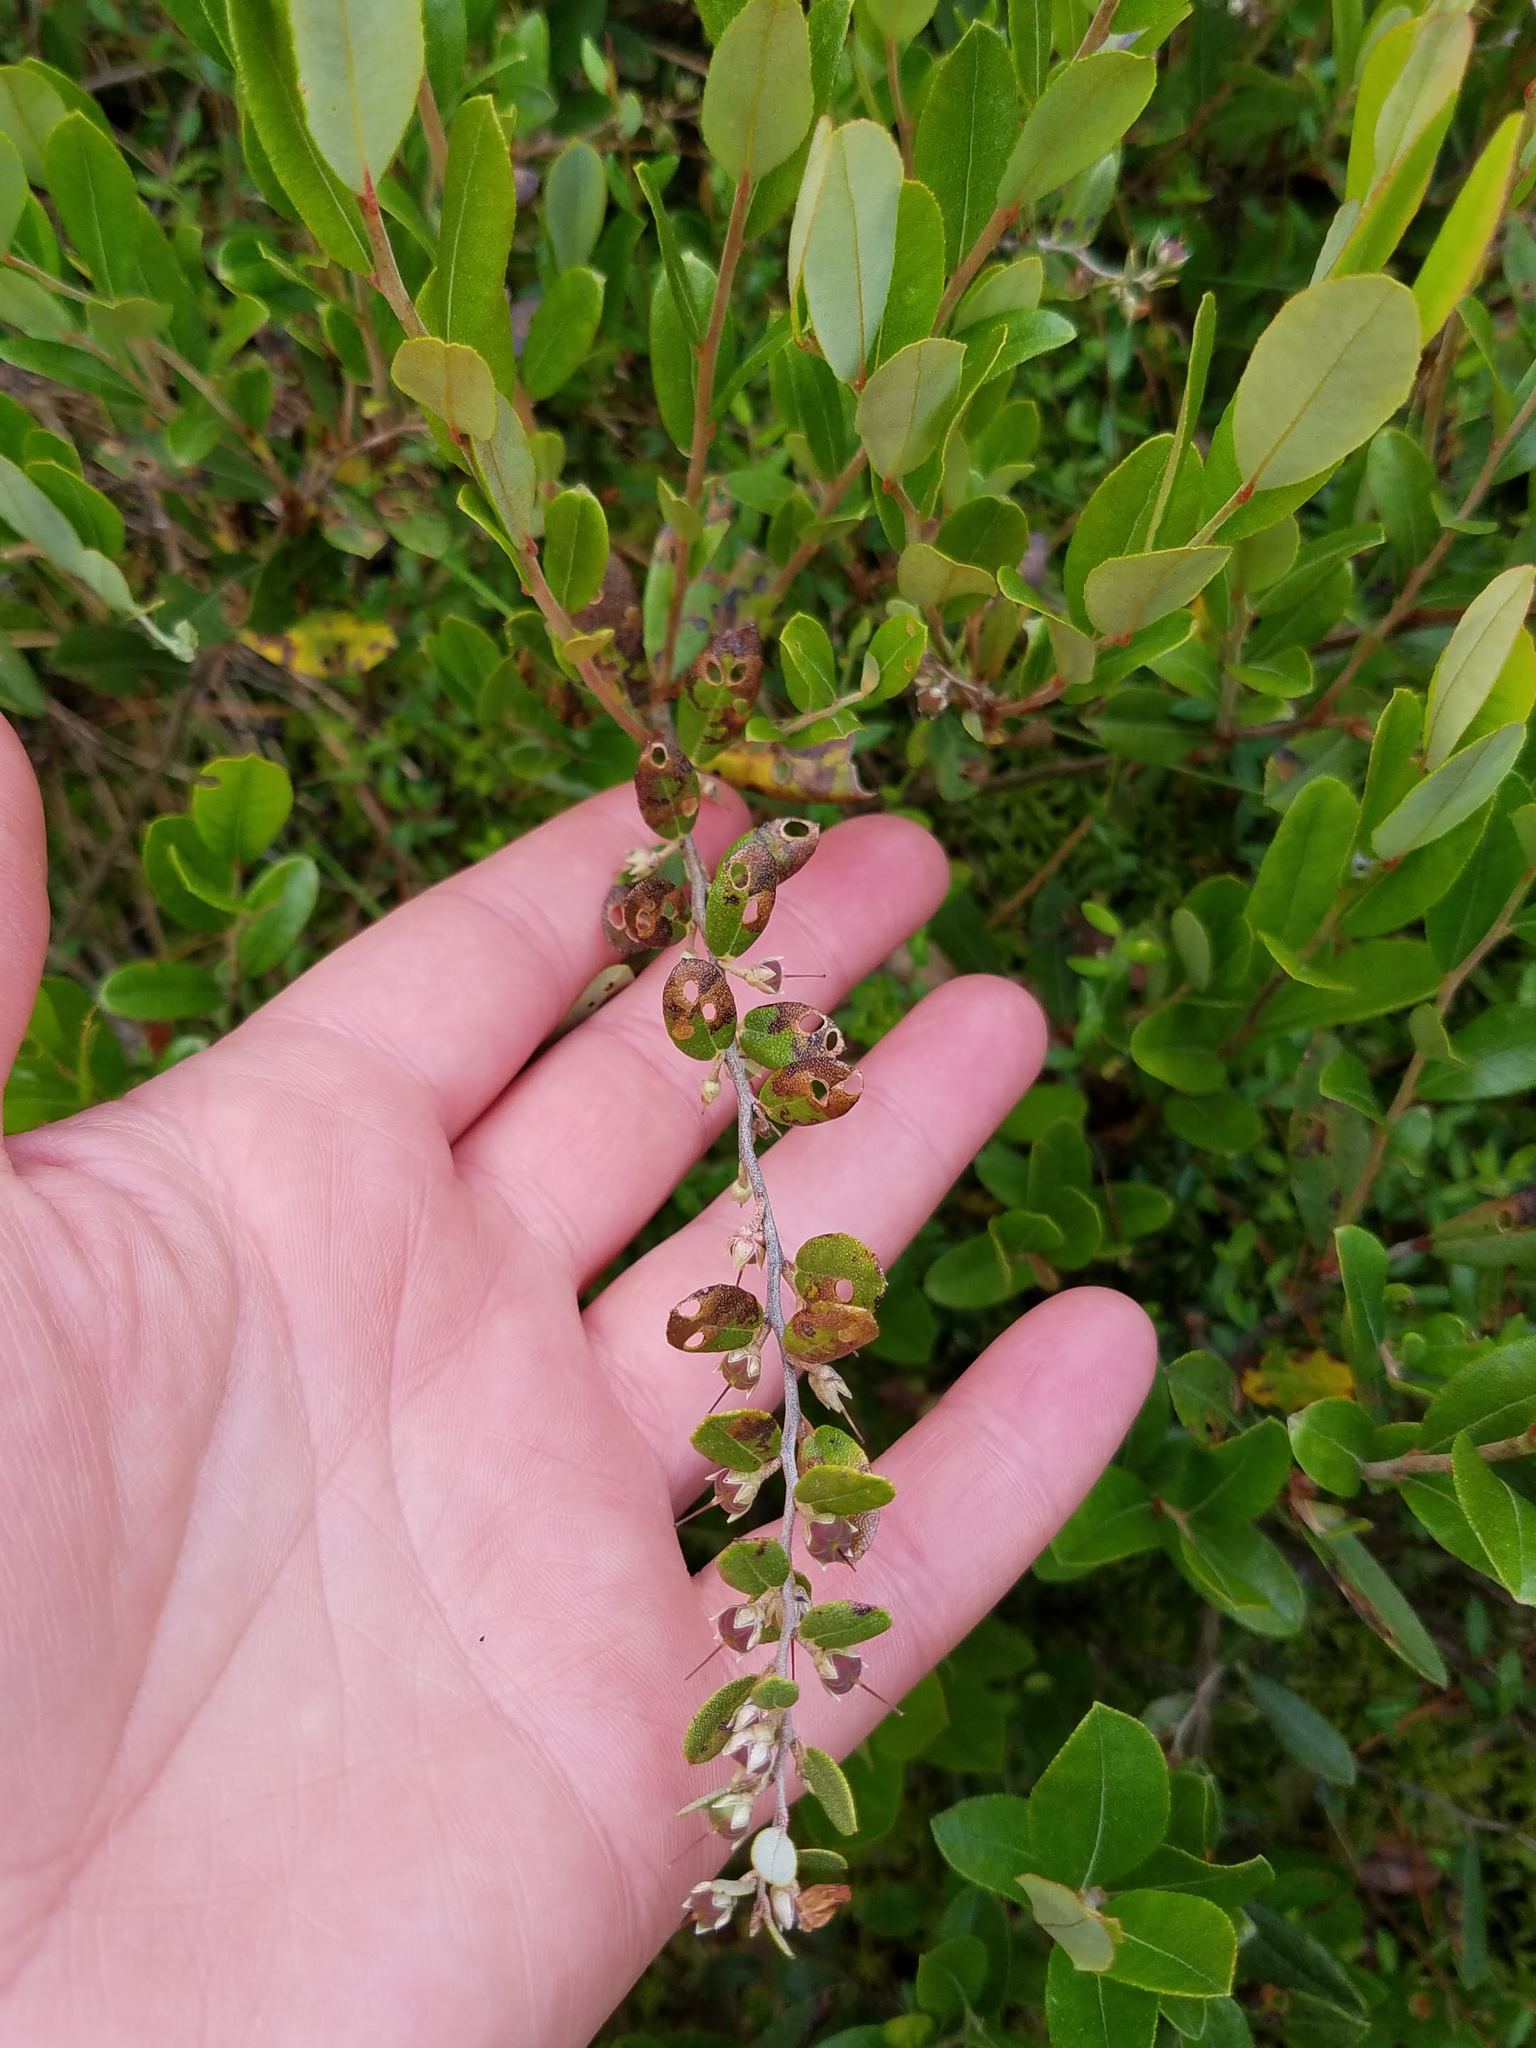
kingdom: Plantae
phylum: Tracheophyta
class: Magnoliopsida
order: Ericales
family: Ericaceae
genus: Chamaedaphne
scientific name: Chamaedaphne calyculata
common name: Leatherleaf
